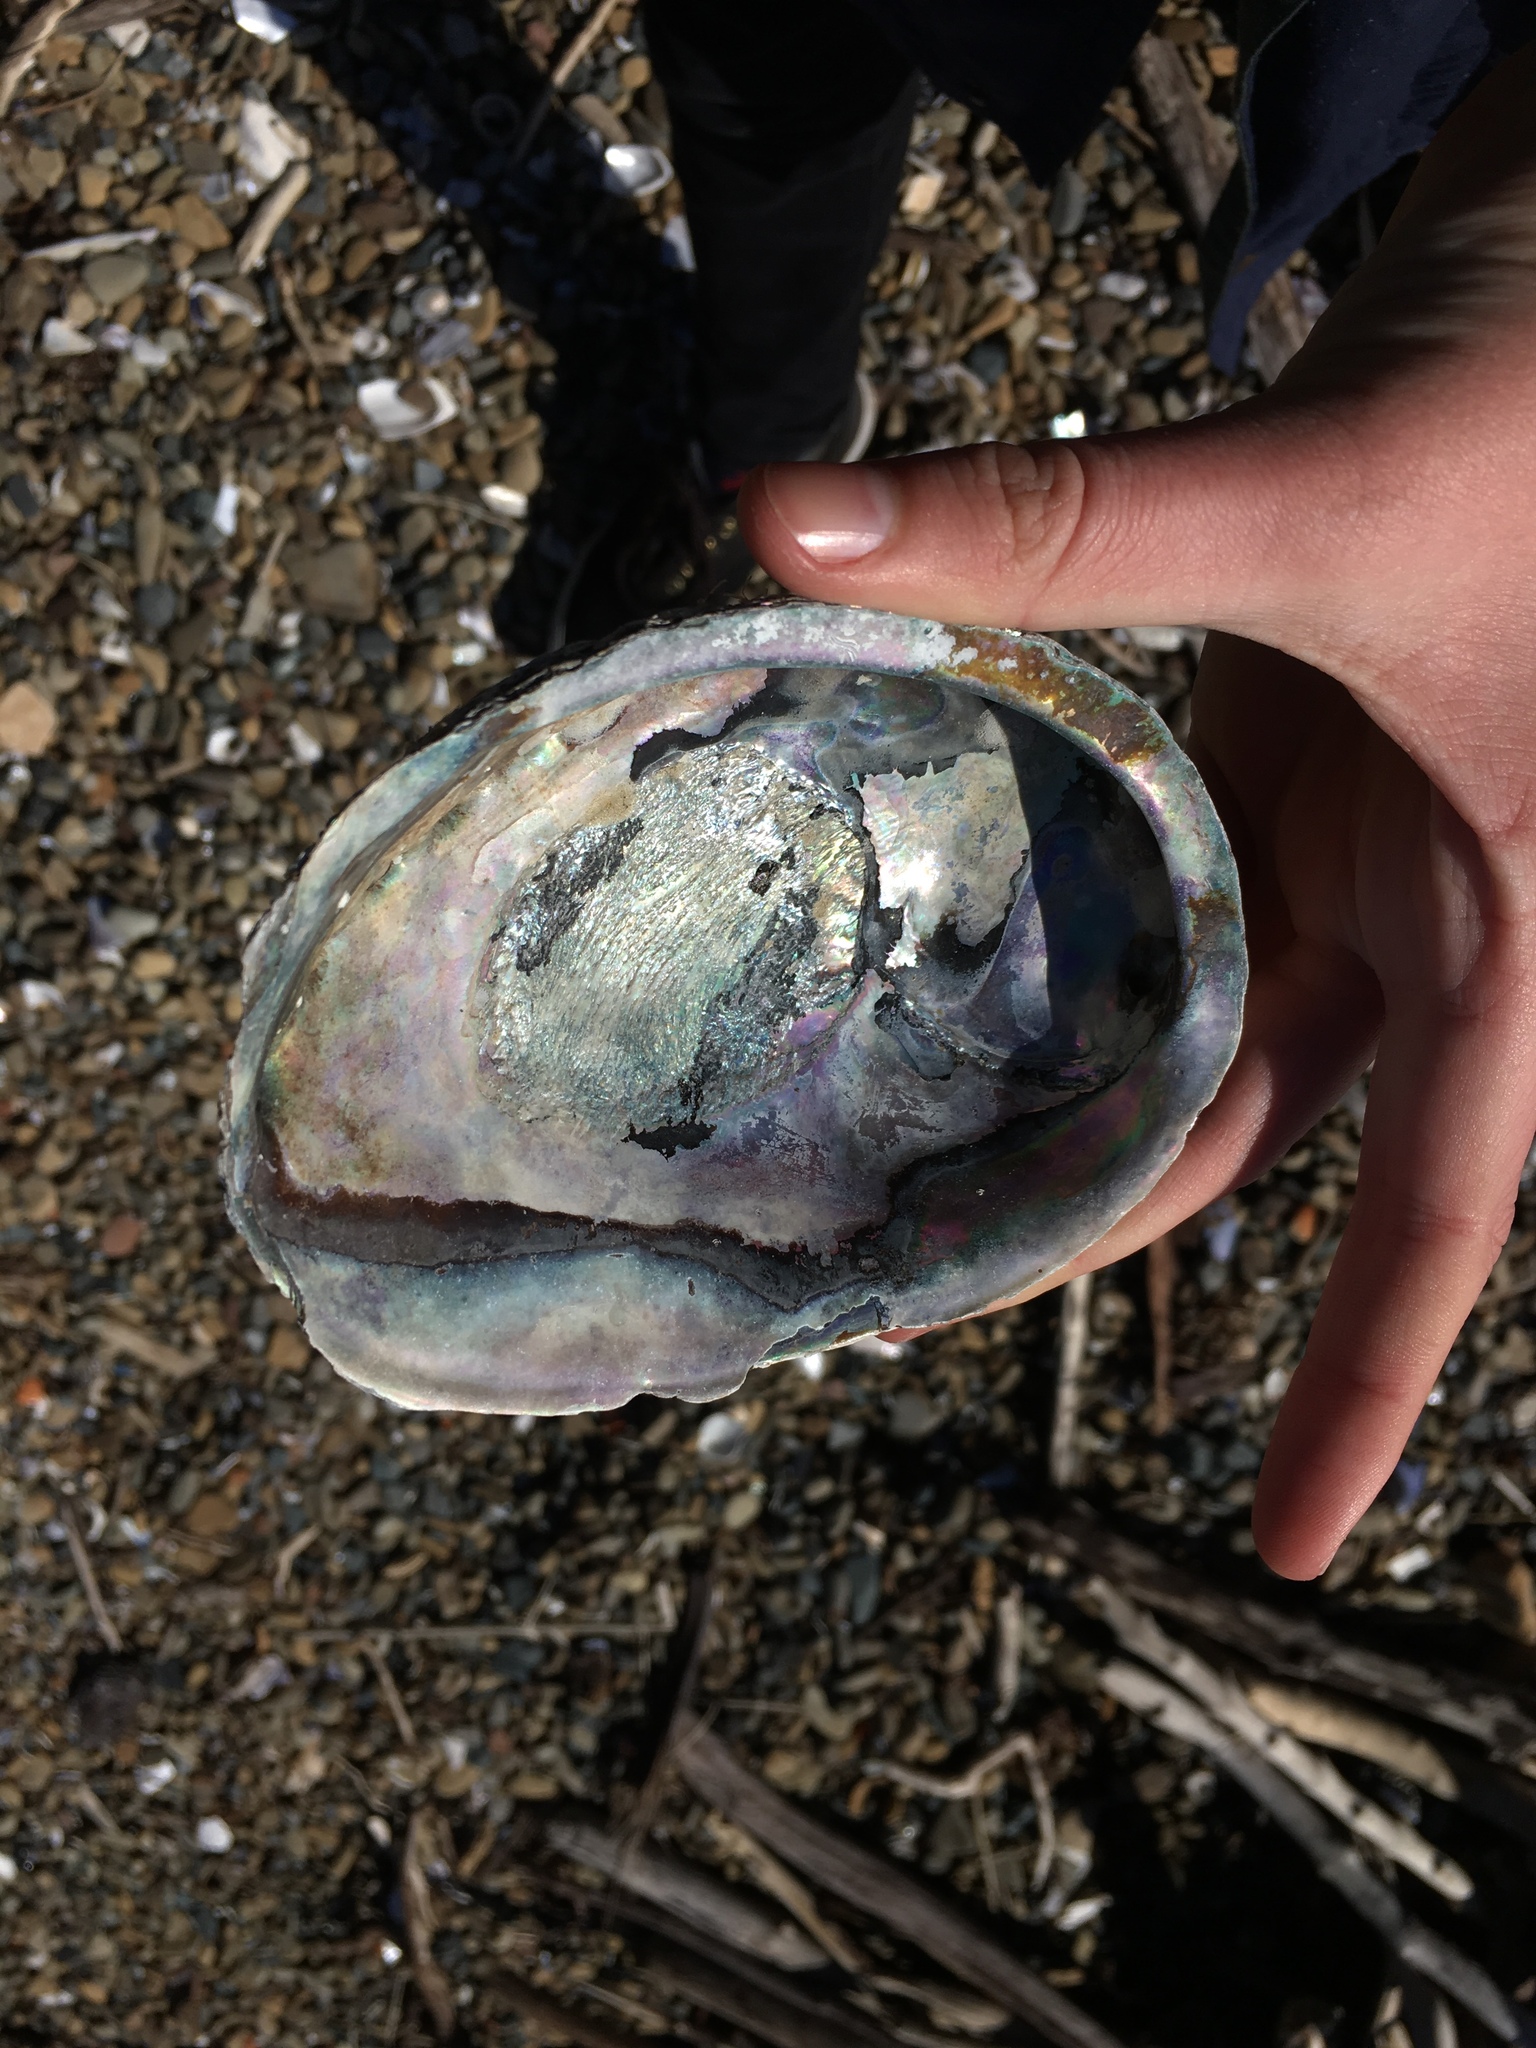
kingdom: Animalia
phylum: Mollusca
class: Gastropoda
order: Lepetellida
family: Haliotidae
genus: Haliotis
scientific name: Haliotis iris
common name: Abalone
